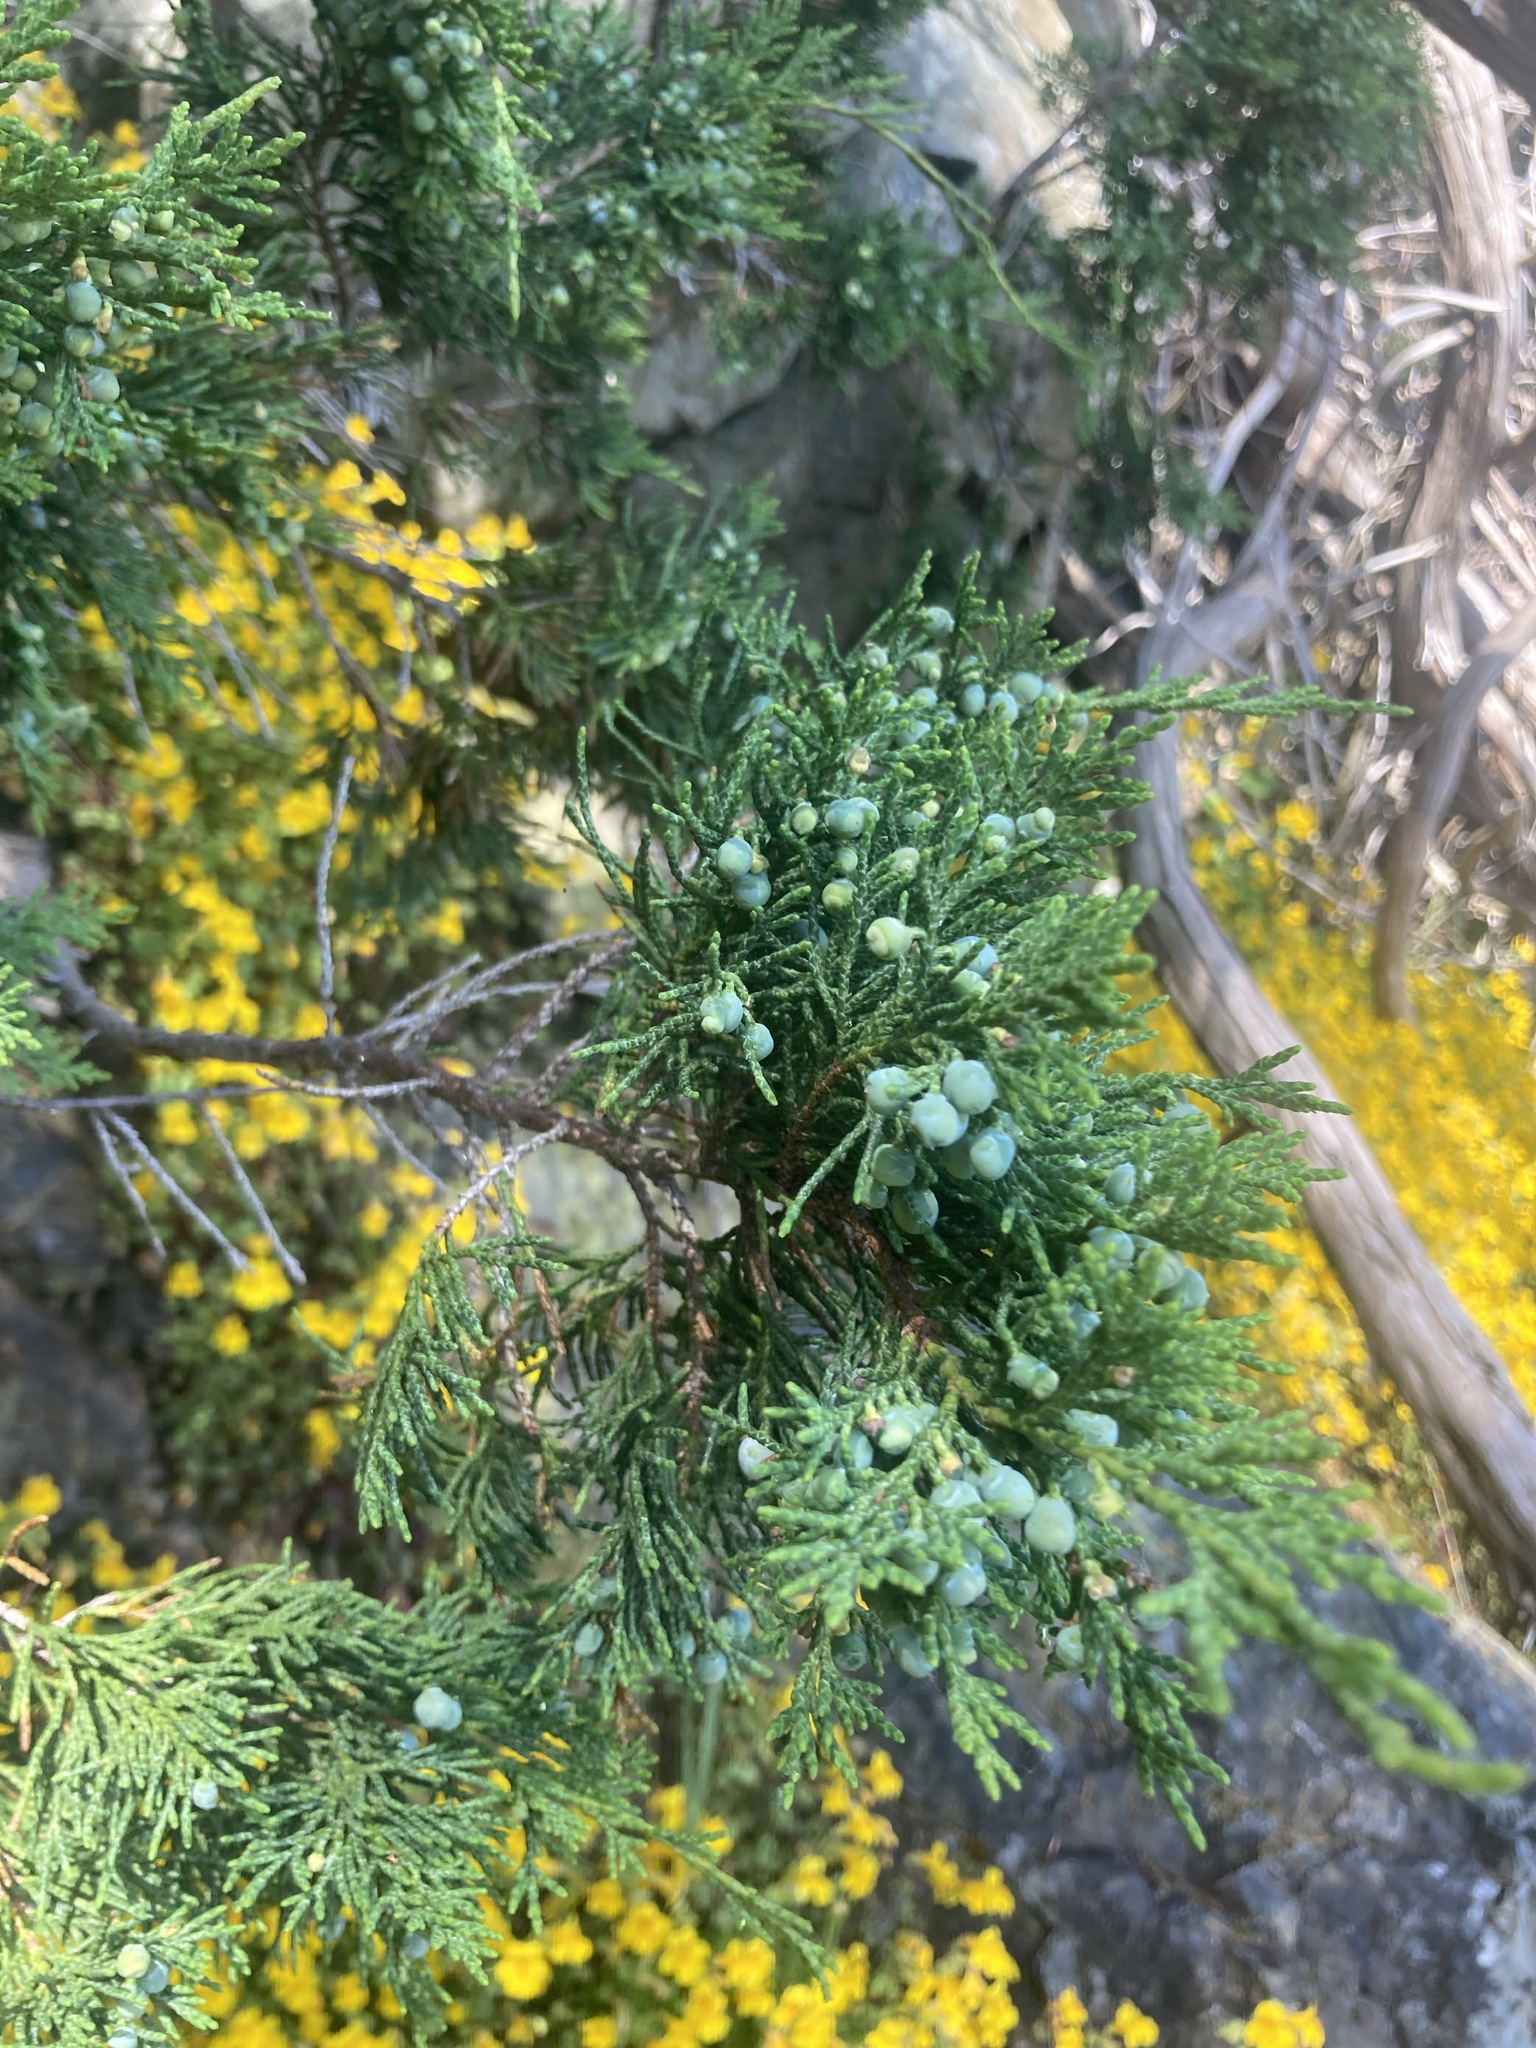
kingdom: Plantae
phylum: Tracheophyta
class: Pinopsida
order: Pinales
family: Cupressaceae
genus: Juniperus
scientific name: Juniperus scopulorum
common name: Rocky mountain juniper
